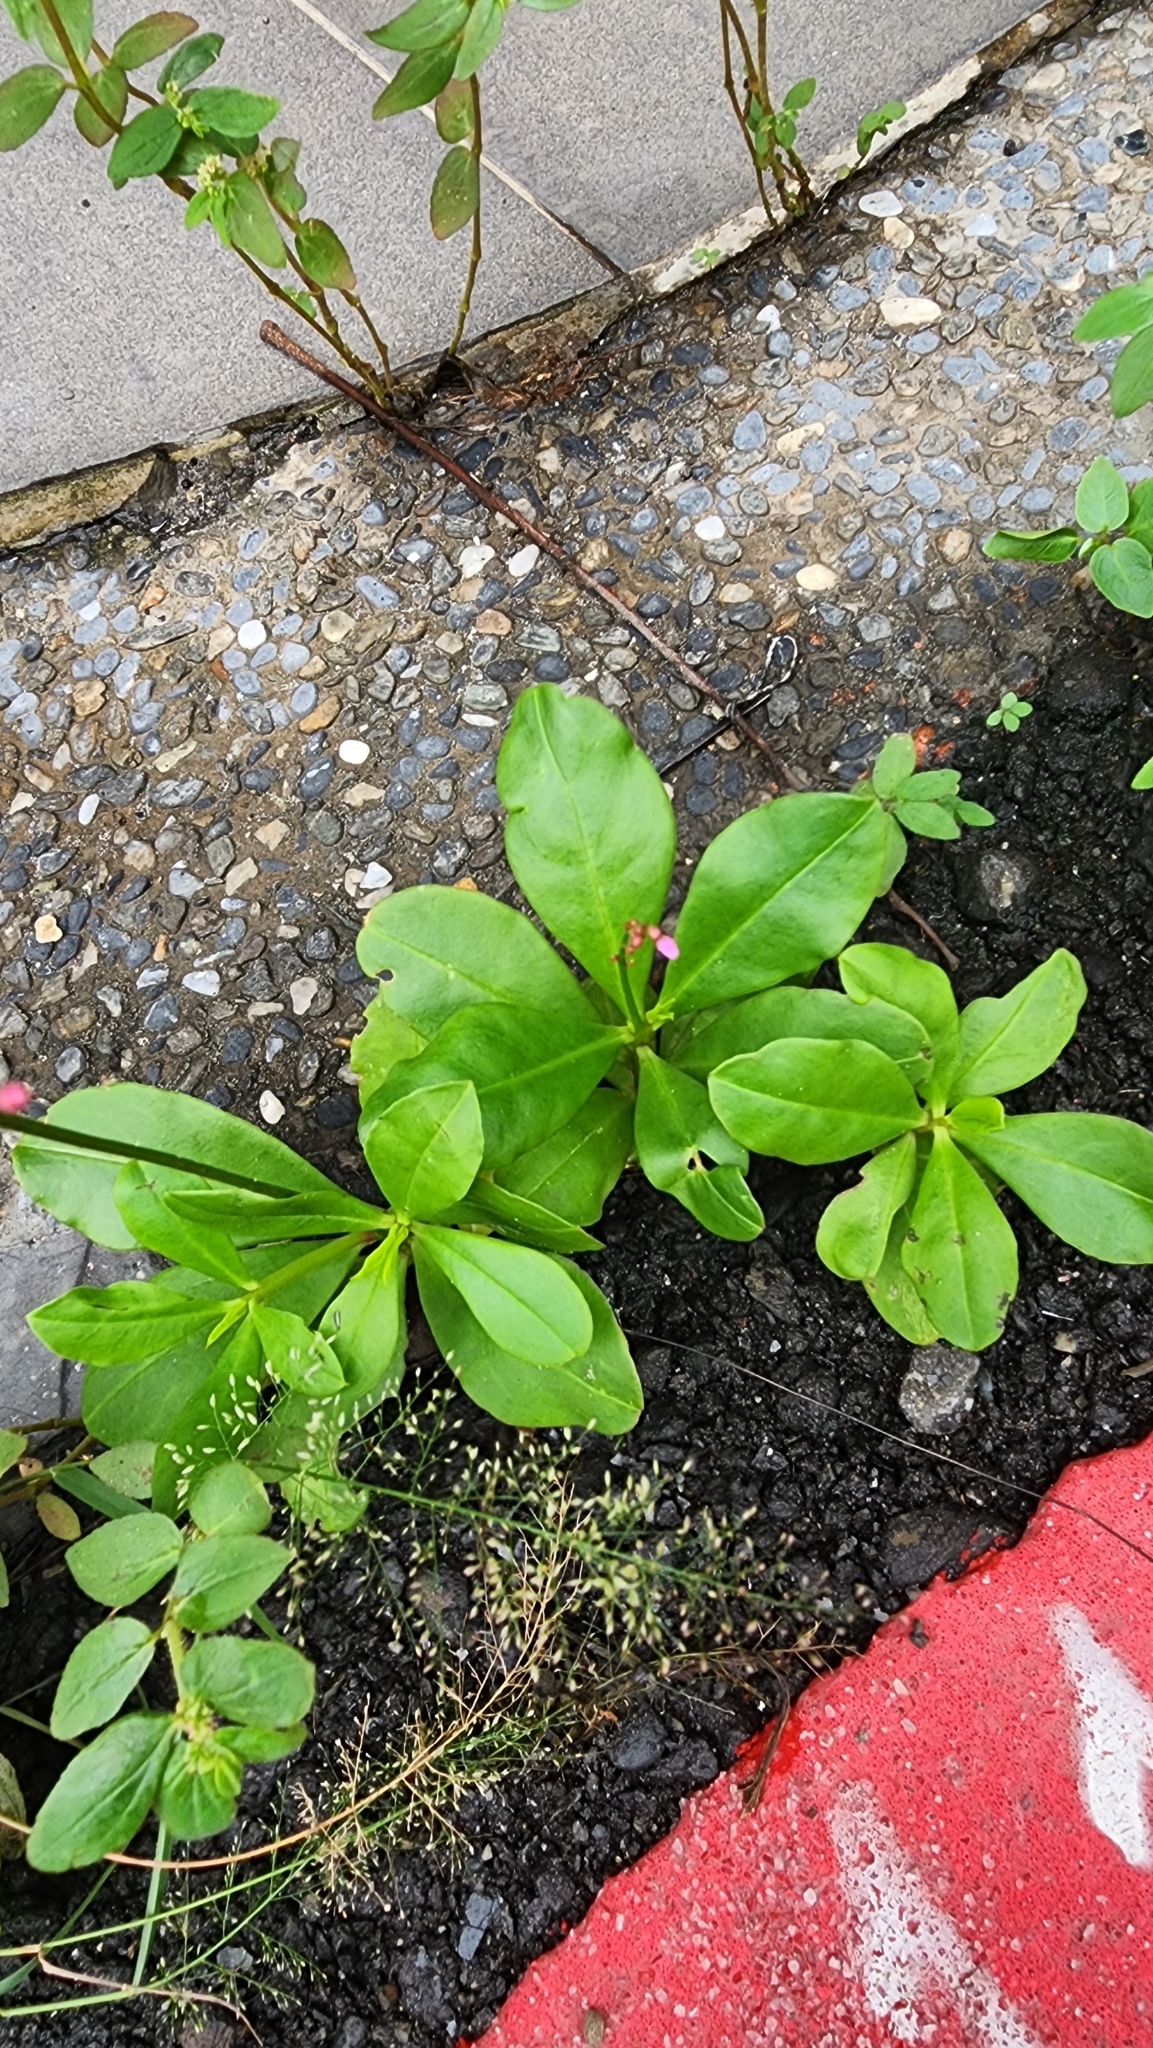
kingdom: Plantae
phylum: Tracheophyta
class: Magnoliopsida
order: Caryophyllales
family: Talinaceae
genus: Talinum
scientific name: Talinum paniculatum
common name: Jewels of opar
